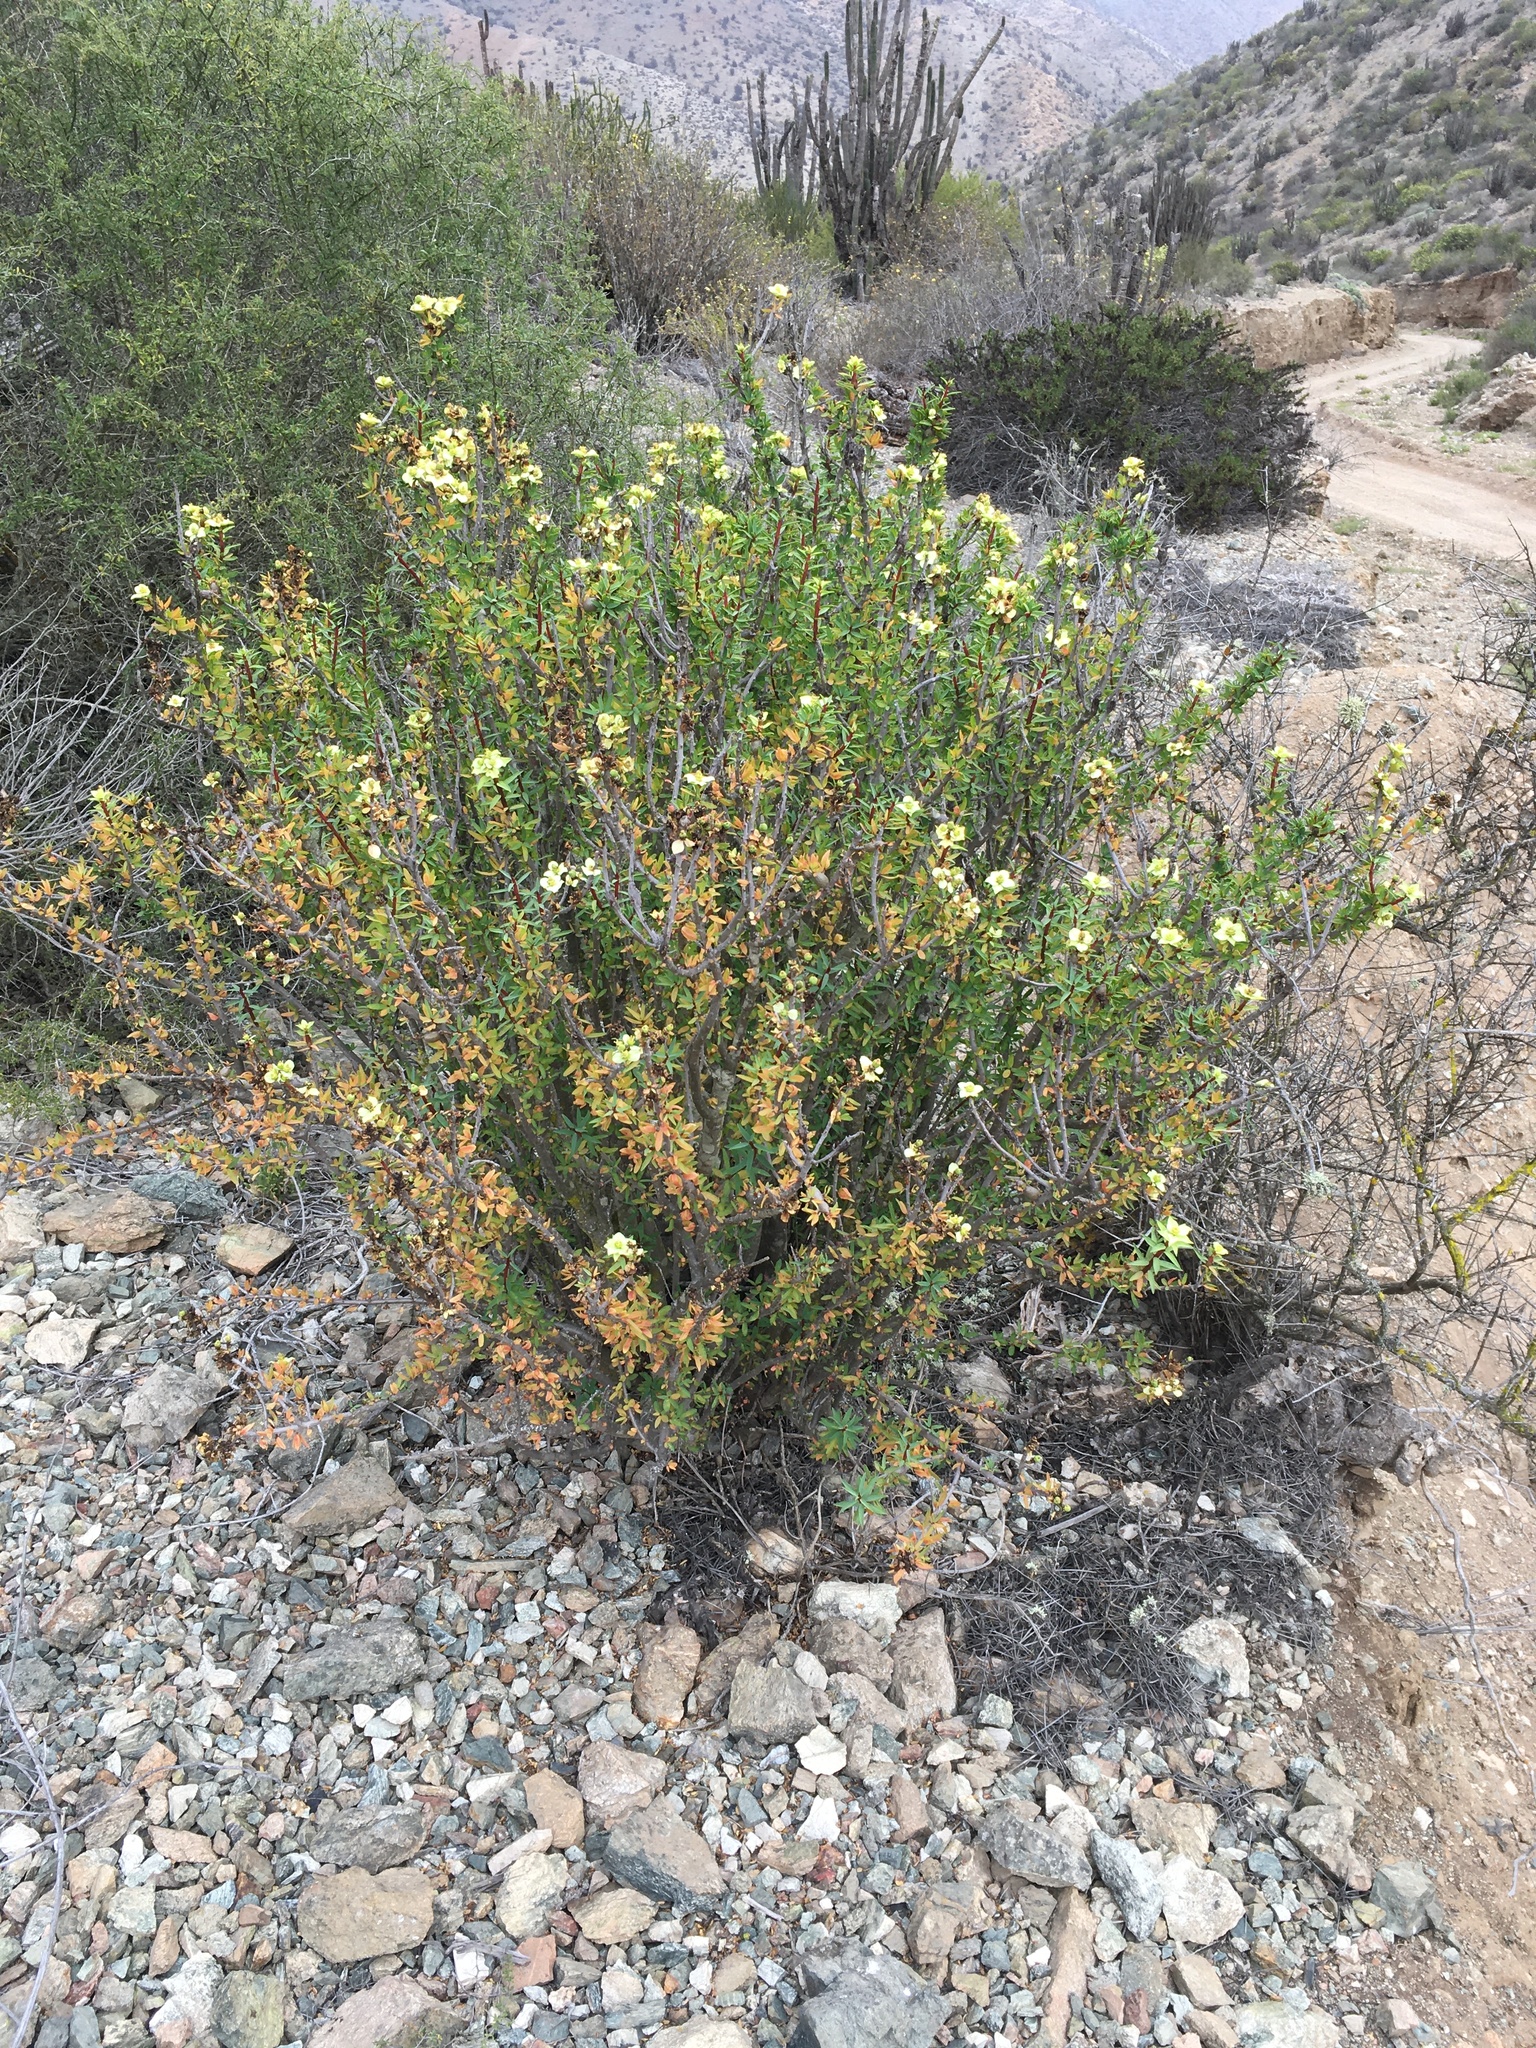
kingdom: Plantae
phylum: Tracheophyta
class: Magnoliopsida
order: Malpighiales
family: Euphorbiaceae
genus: Euphorbia
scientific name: Euphorbia lactiflua
